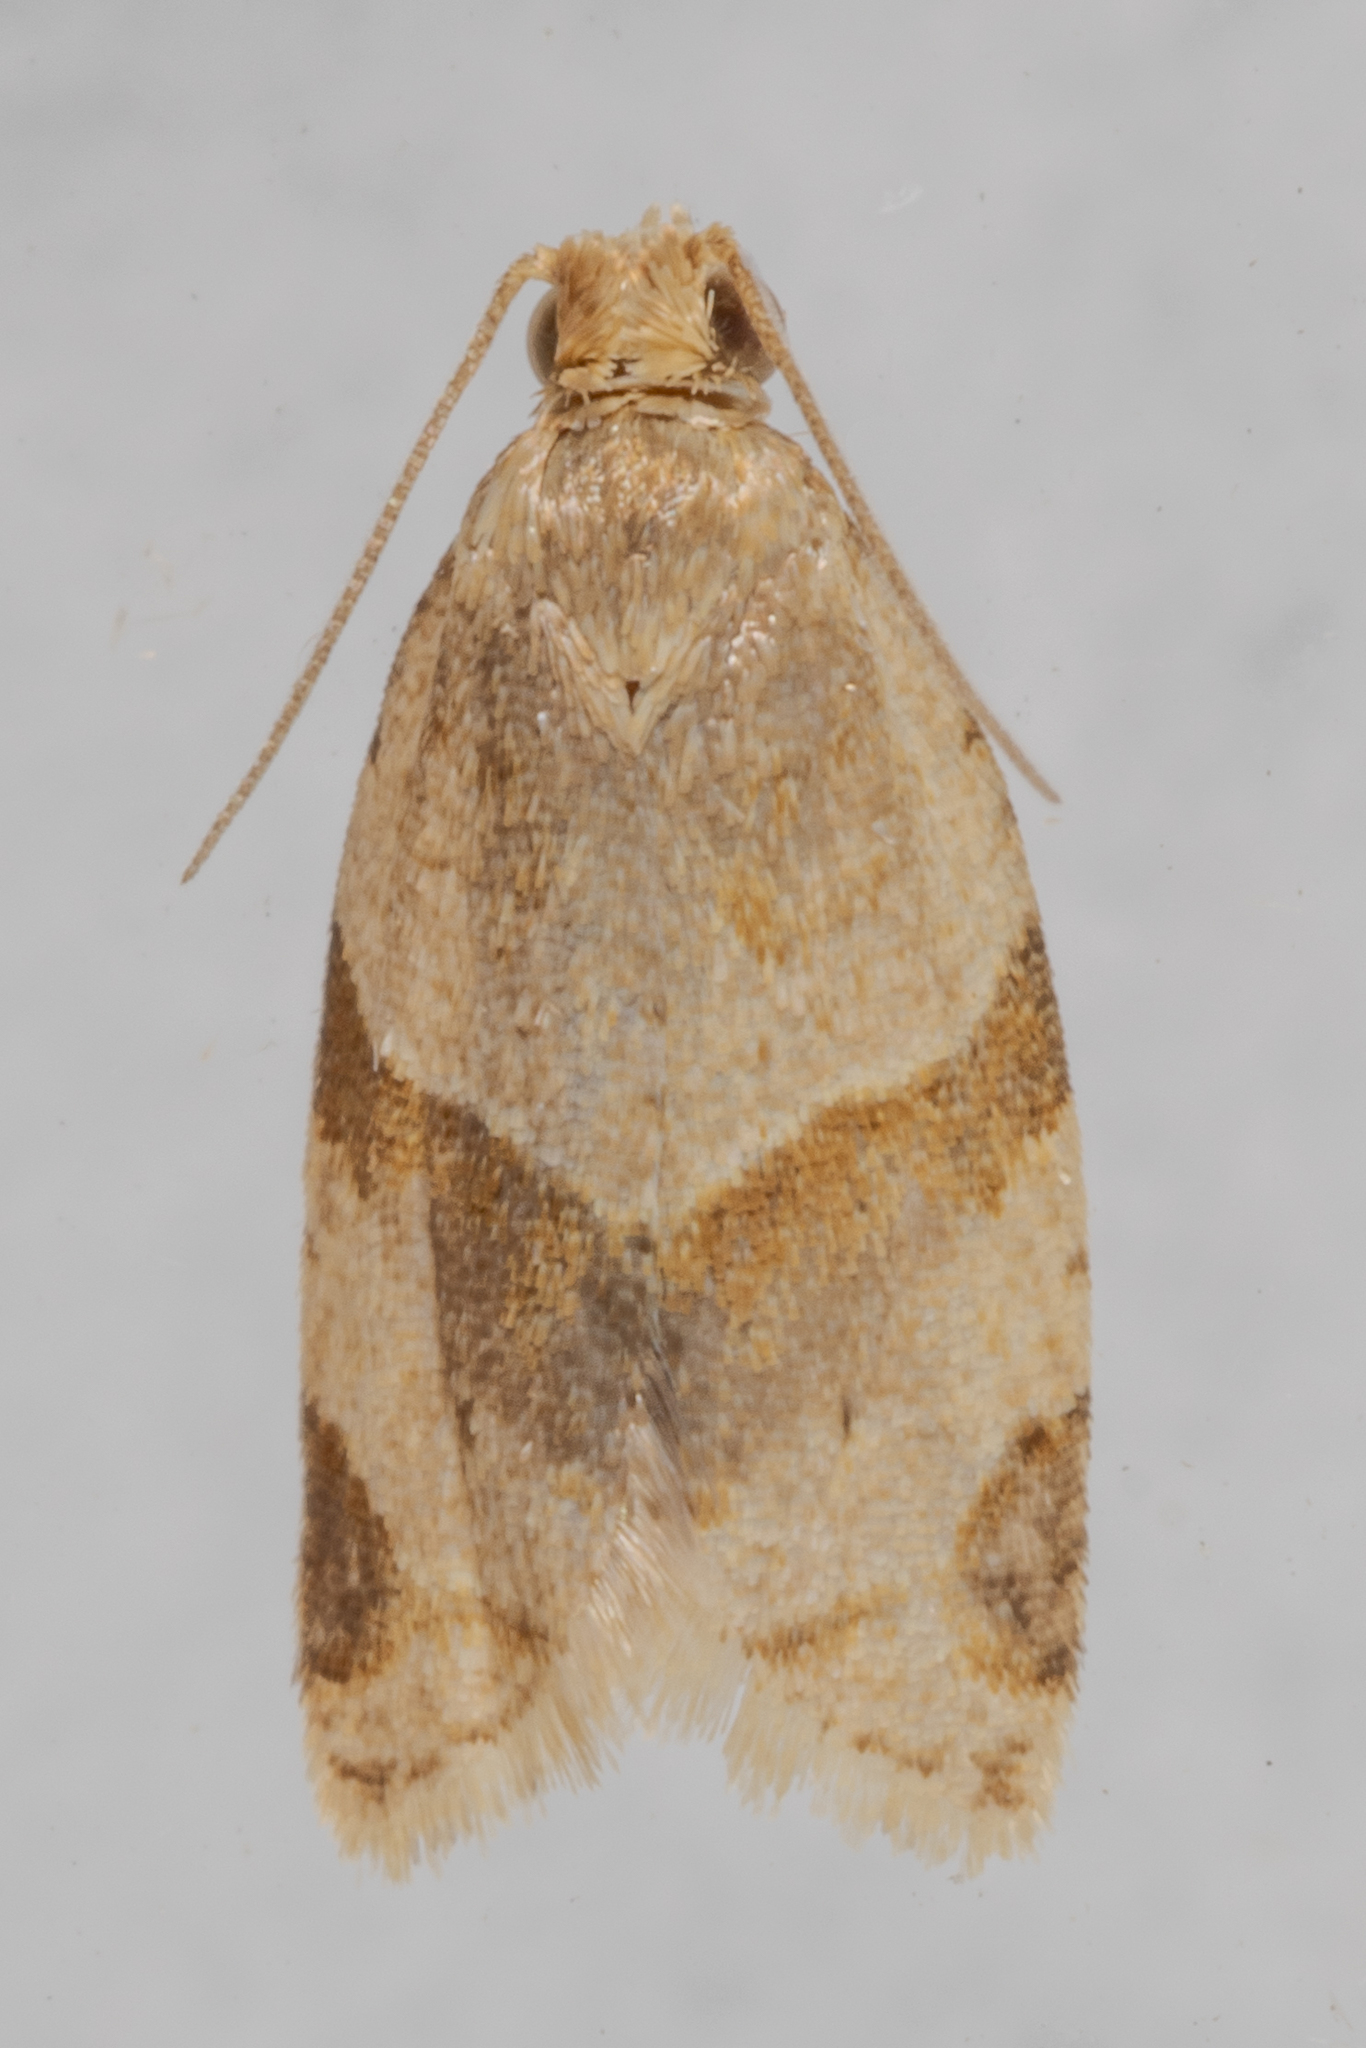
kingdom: Animalia
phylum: Arthropoda
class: Insecta
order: Lepidoptera
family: Tortricidae
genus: Clepsis
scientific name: Clepsis peritana
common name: Garden tortrix
